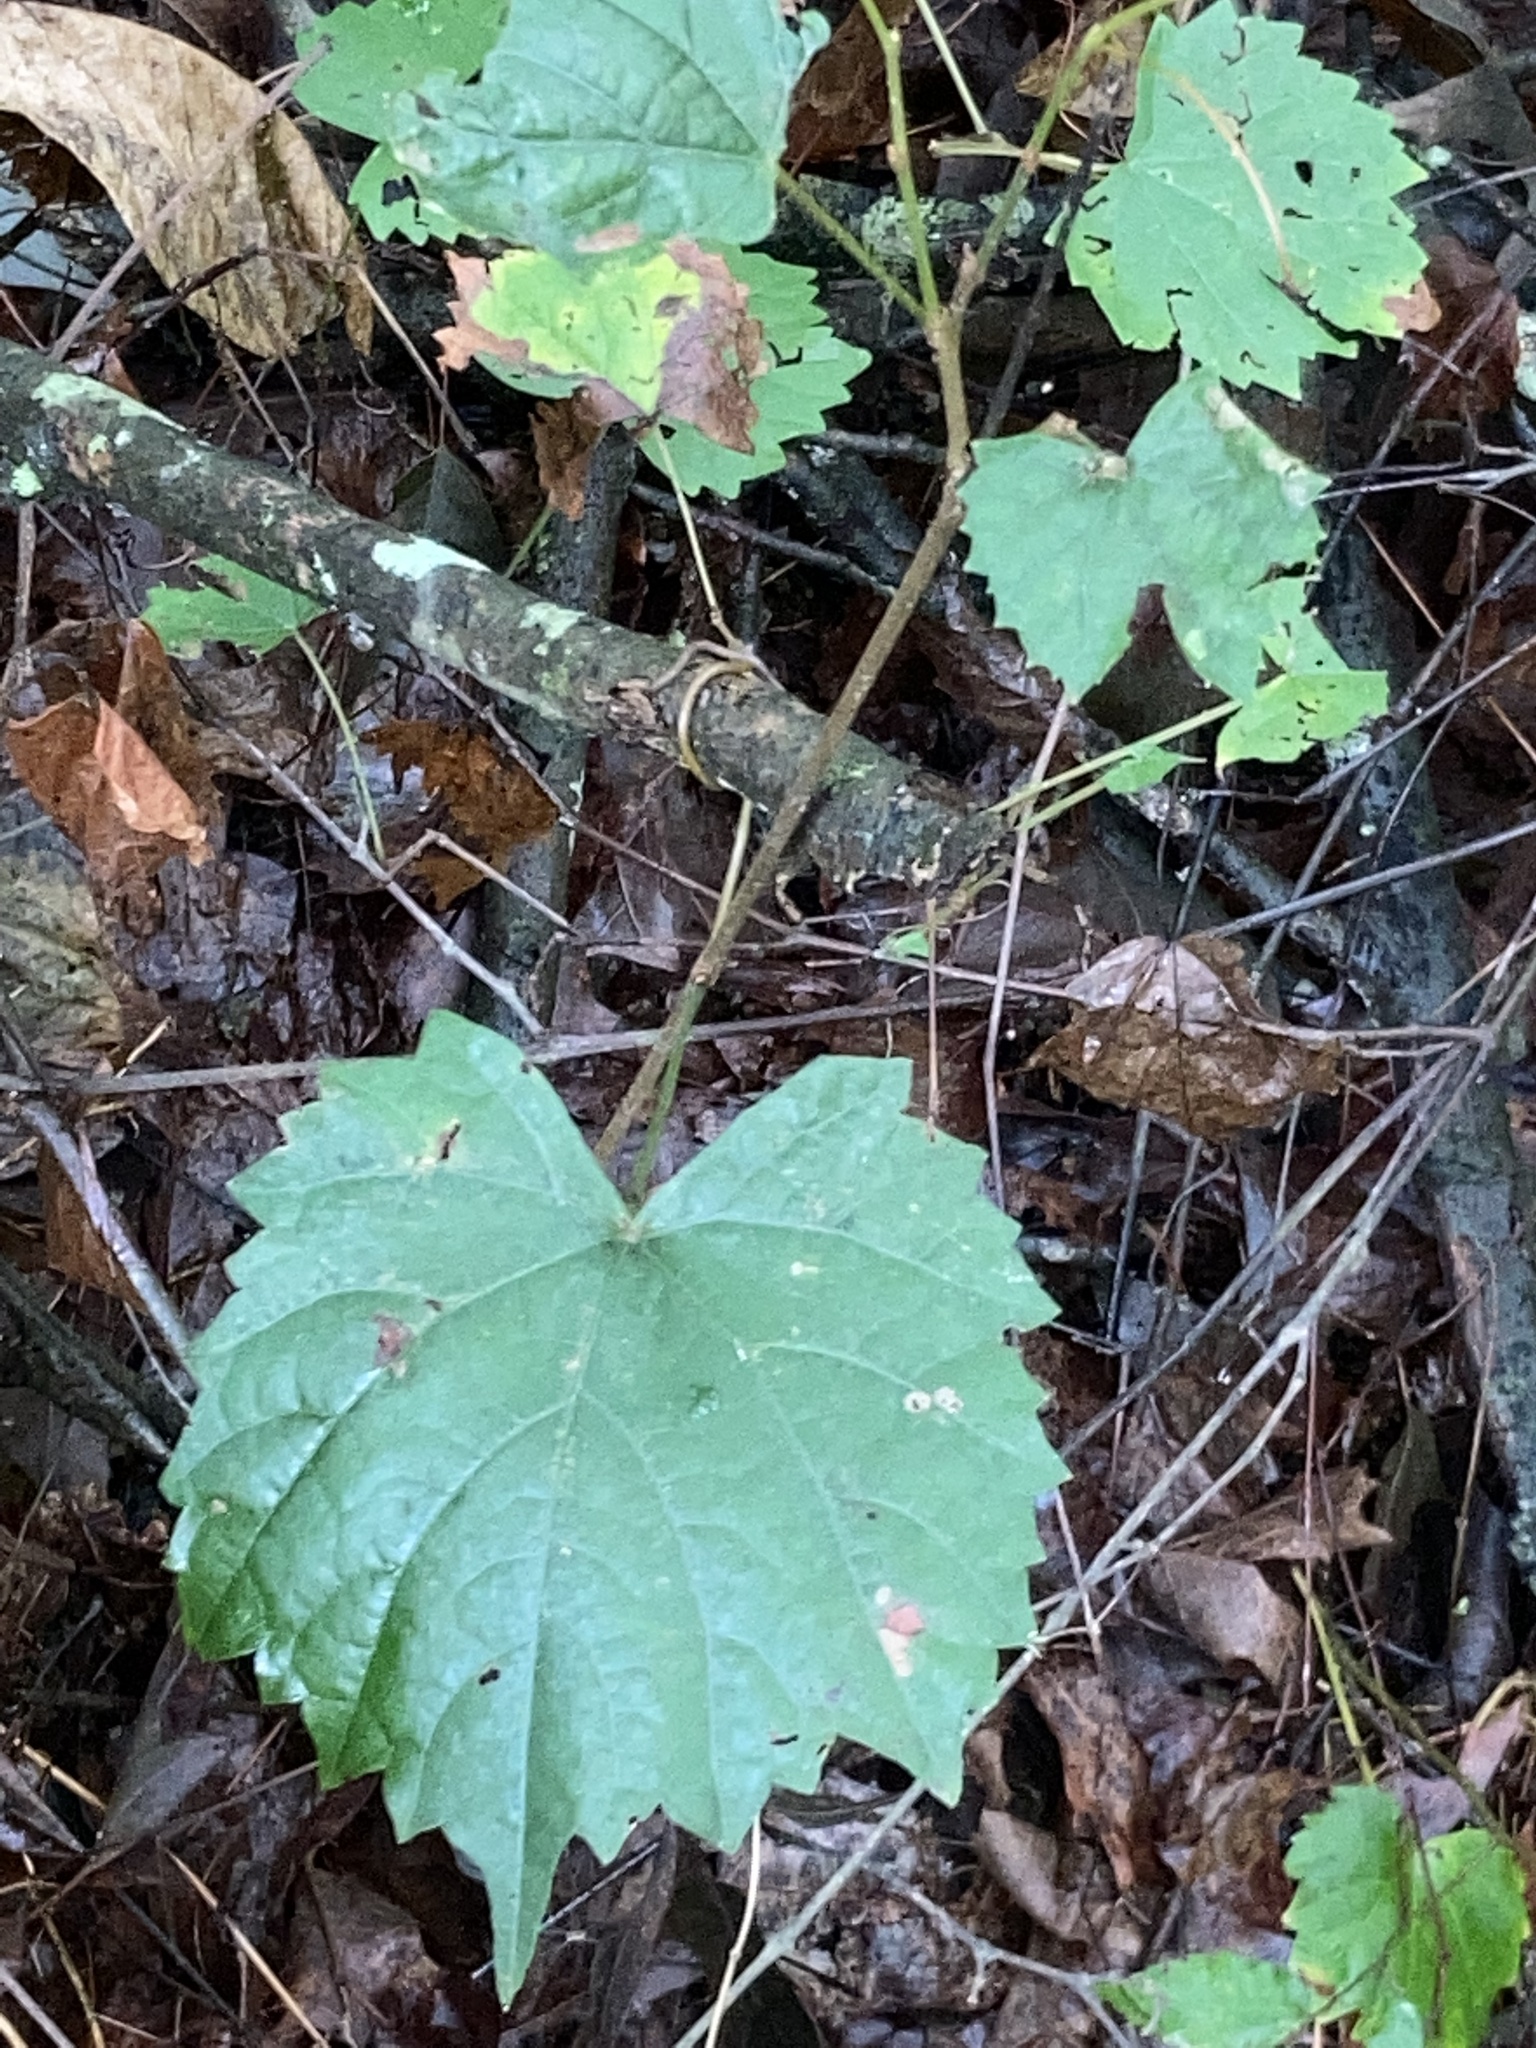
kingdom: Plantae
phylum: Tracheophyta
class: Magnoliopsida
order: Vitales
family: Vitaceae
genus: Vitis
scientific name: Vitis rotundifolia
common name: Muscadine grape
